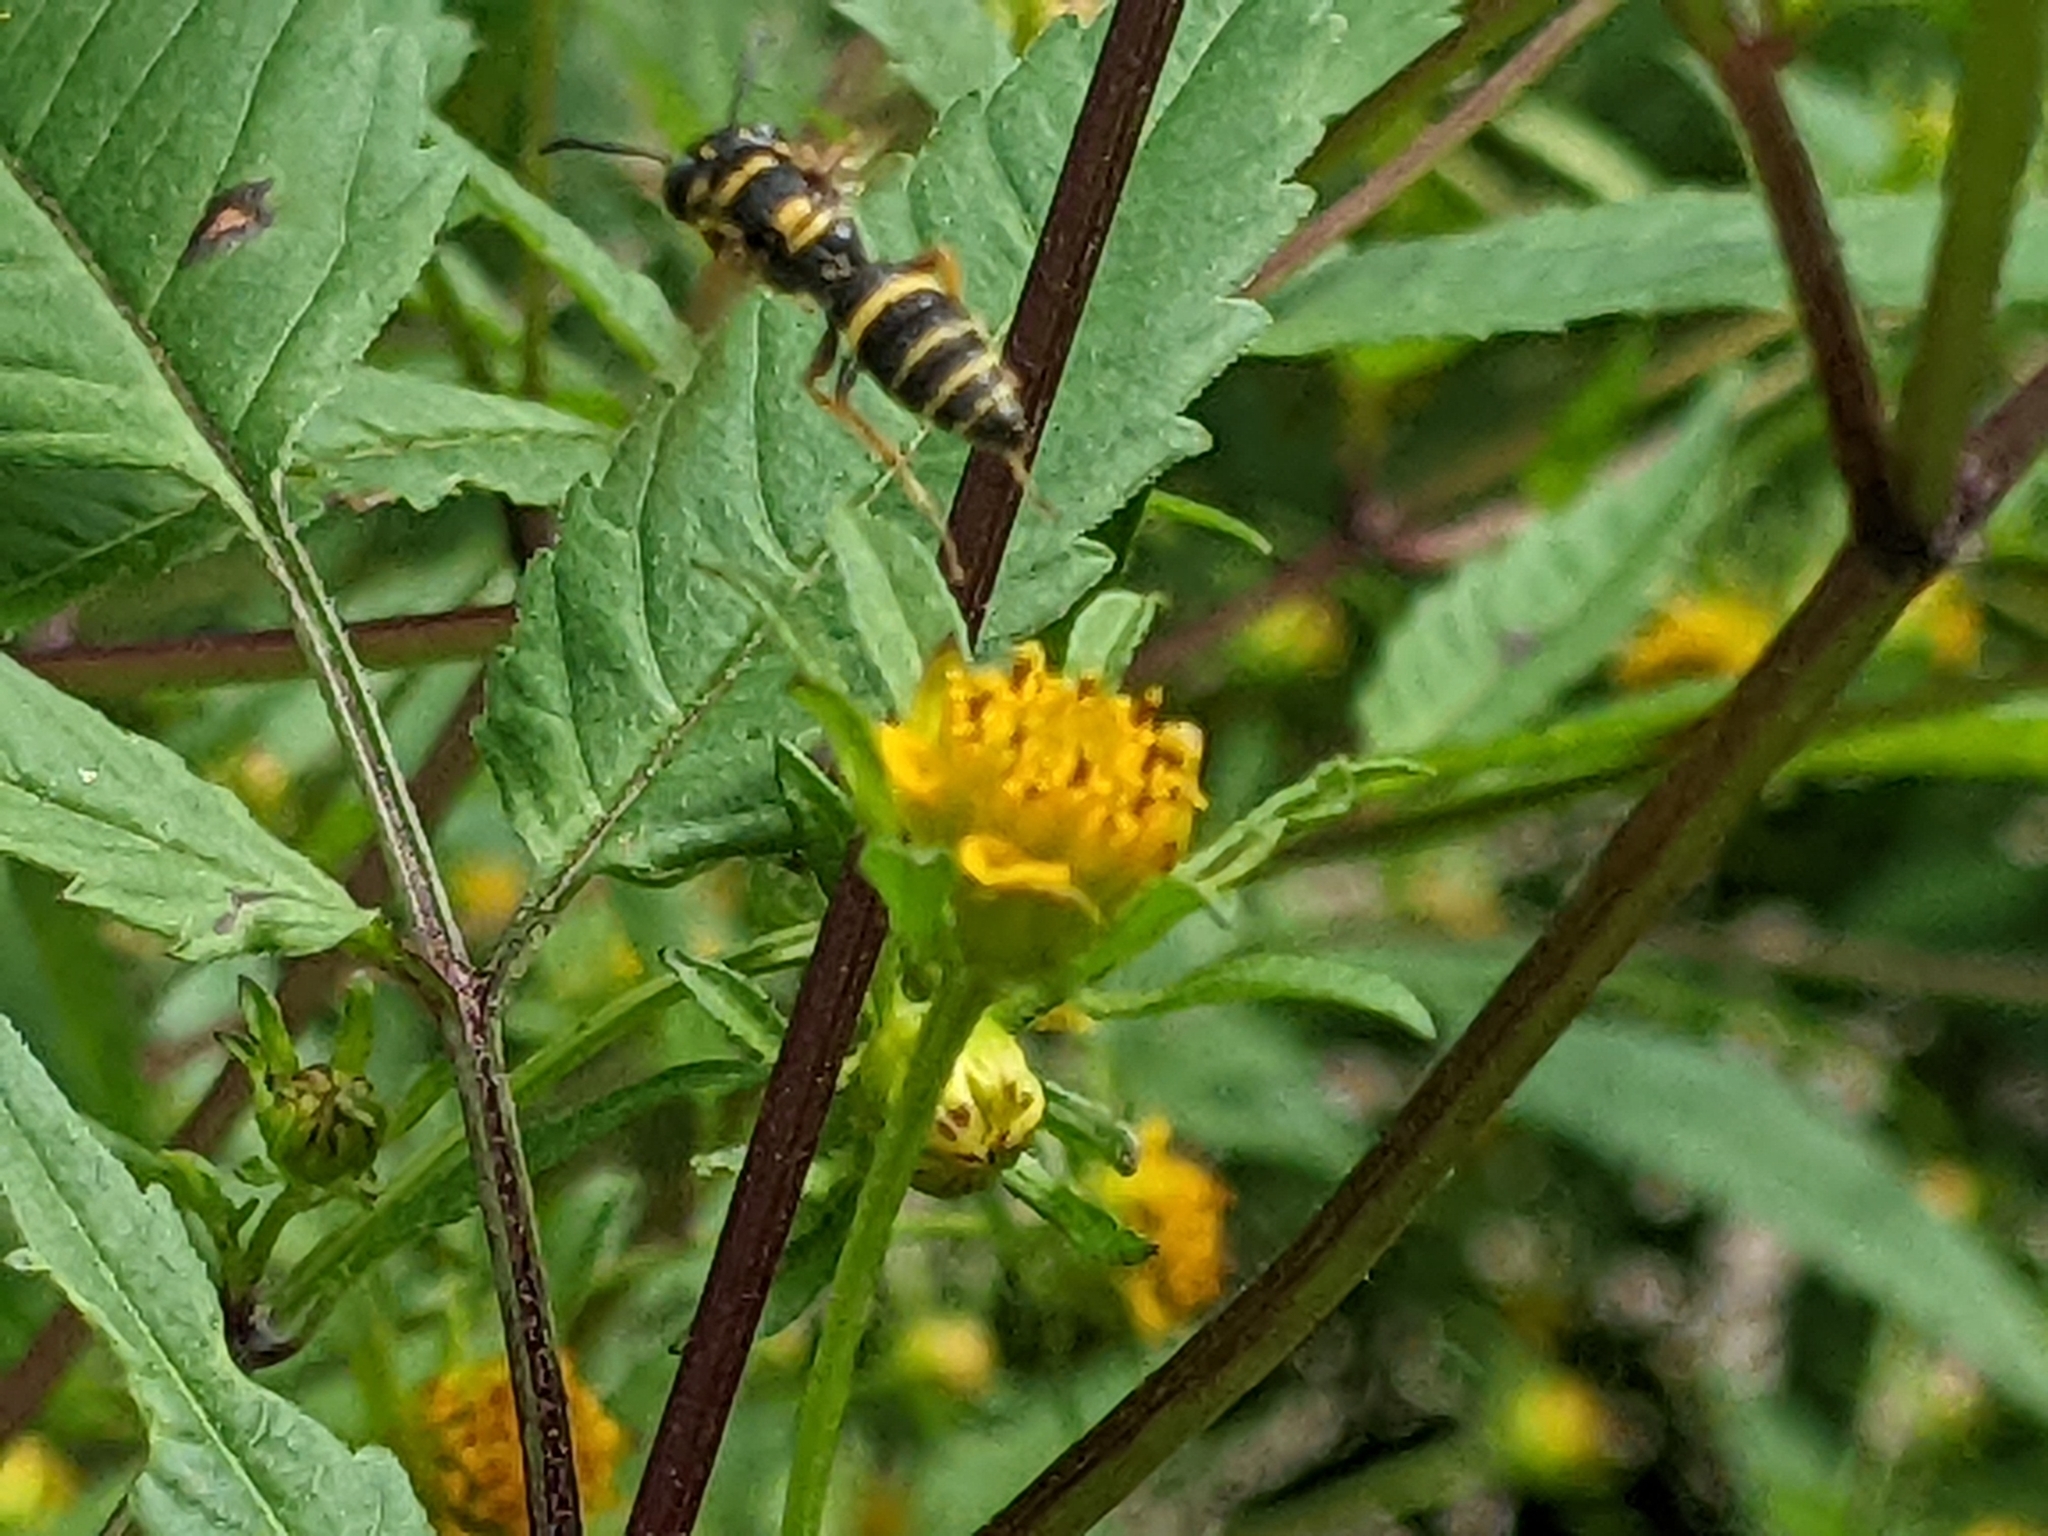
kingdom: Animalia
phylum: Arthropoda
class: Insecta
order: Hymenoptera
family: Crabronidae
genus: Philanthus
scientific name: Philanthus gibbosus
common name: Humped beewolf
